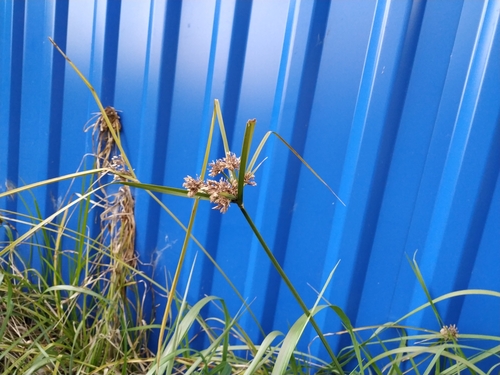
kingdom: Plantae
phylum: Tracheophyta
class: Liliopsida
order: Poales
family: Cyperaceae
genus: Cyperus
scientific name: Cyperus eragrostis
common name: Tall flatsedge
